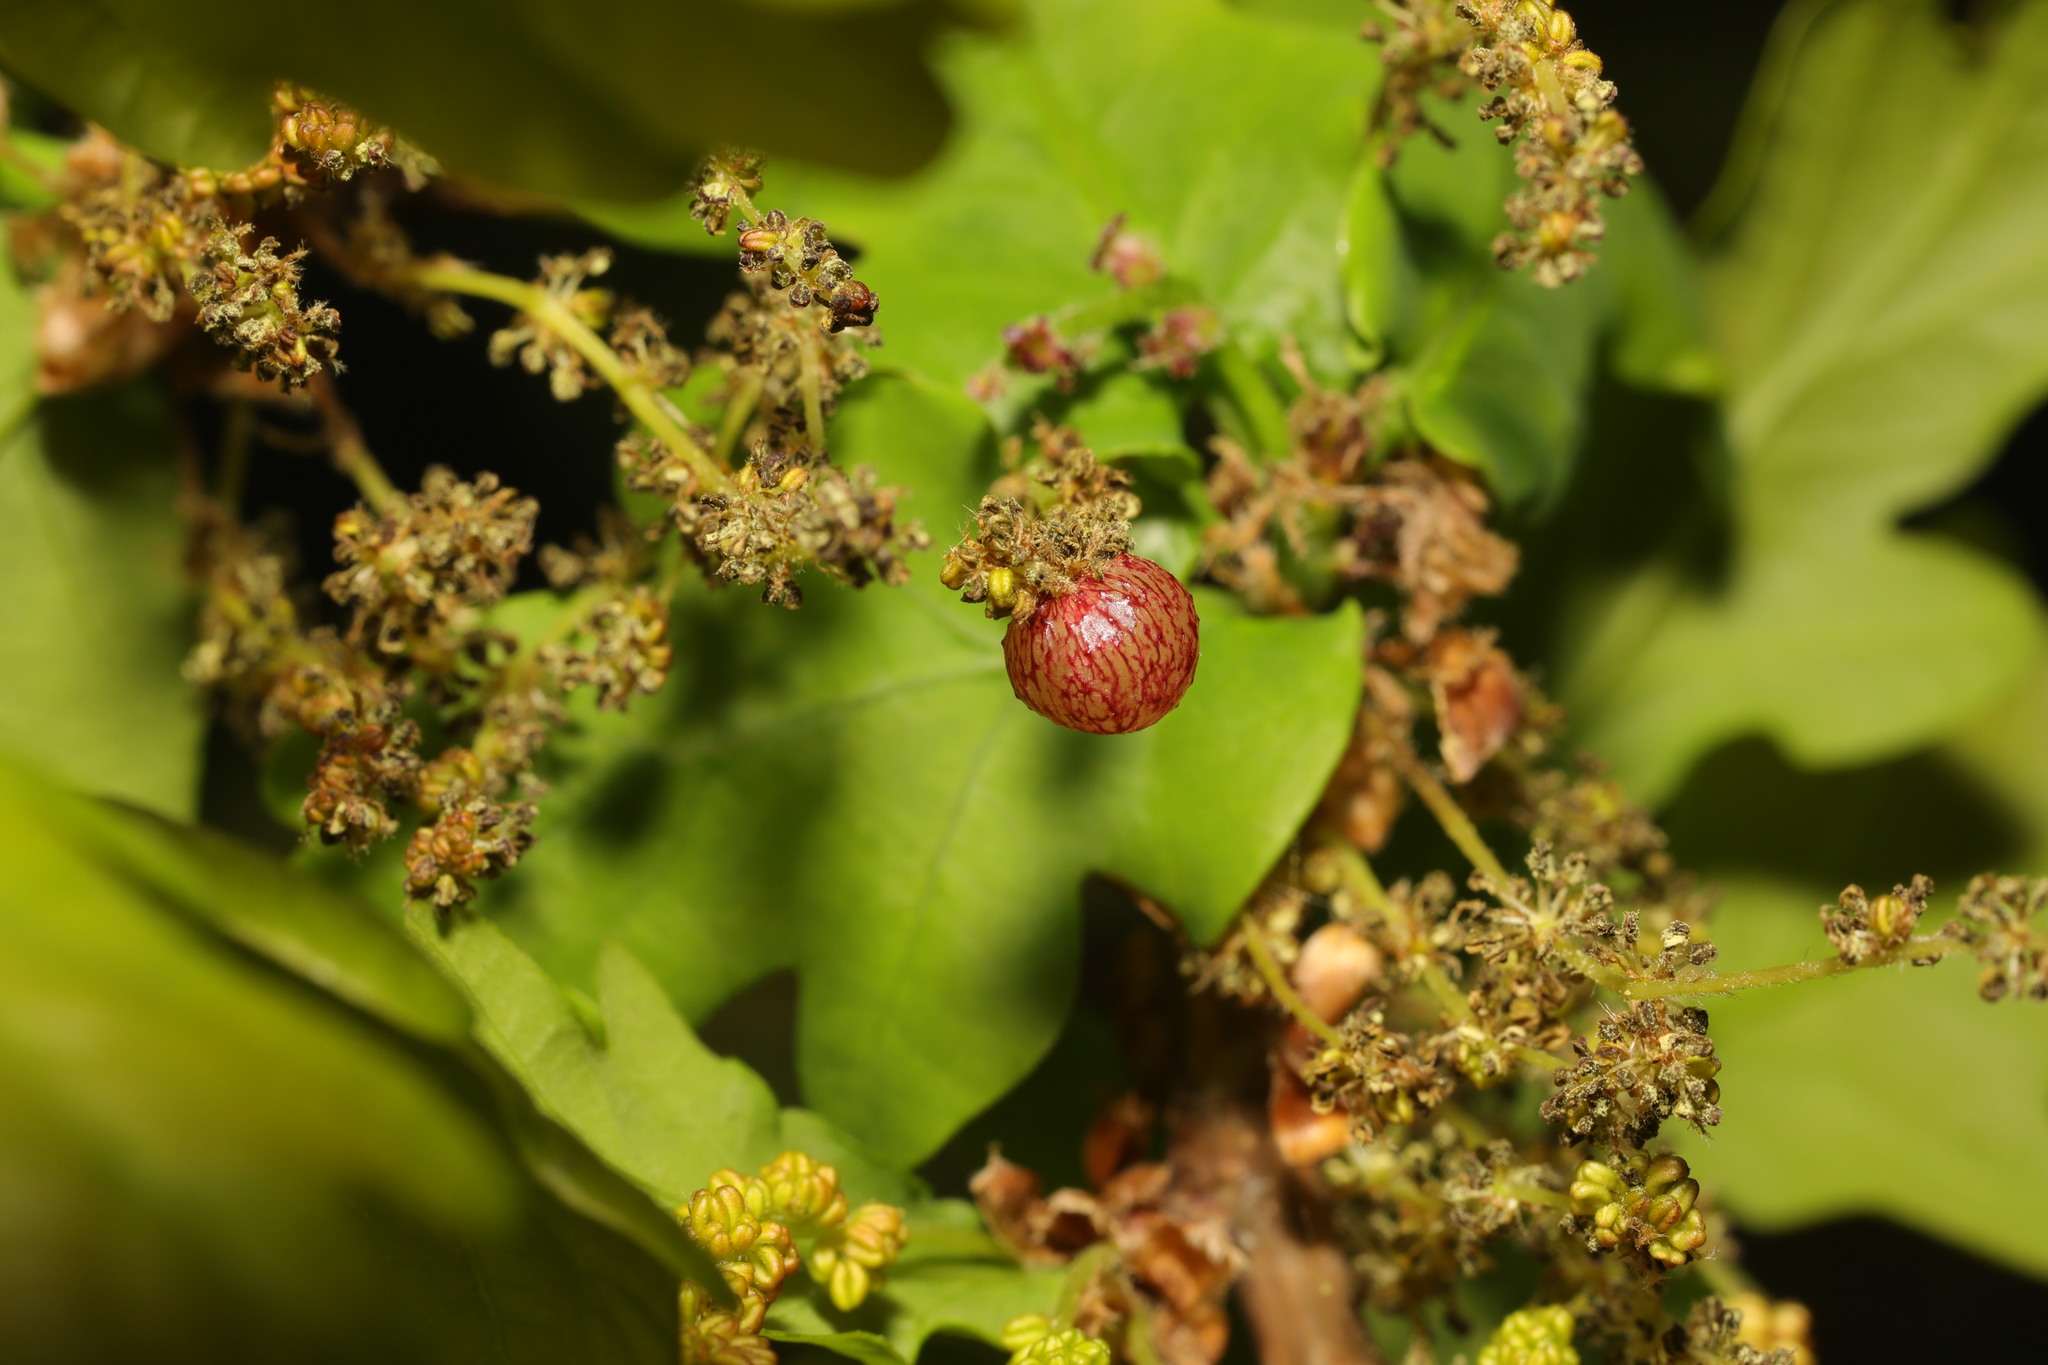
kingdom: Animalia
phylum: Arthropoda
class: Insecta
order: Hymenoptera
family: Cynipidae
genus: Neuroterus
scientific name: Neuroterus quercusbaccarum
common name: Common spangle gall
